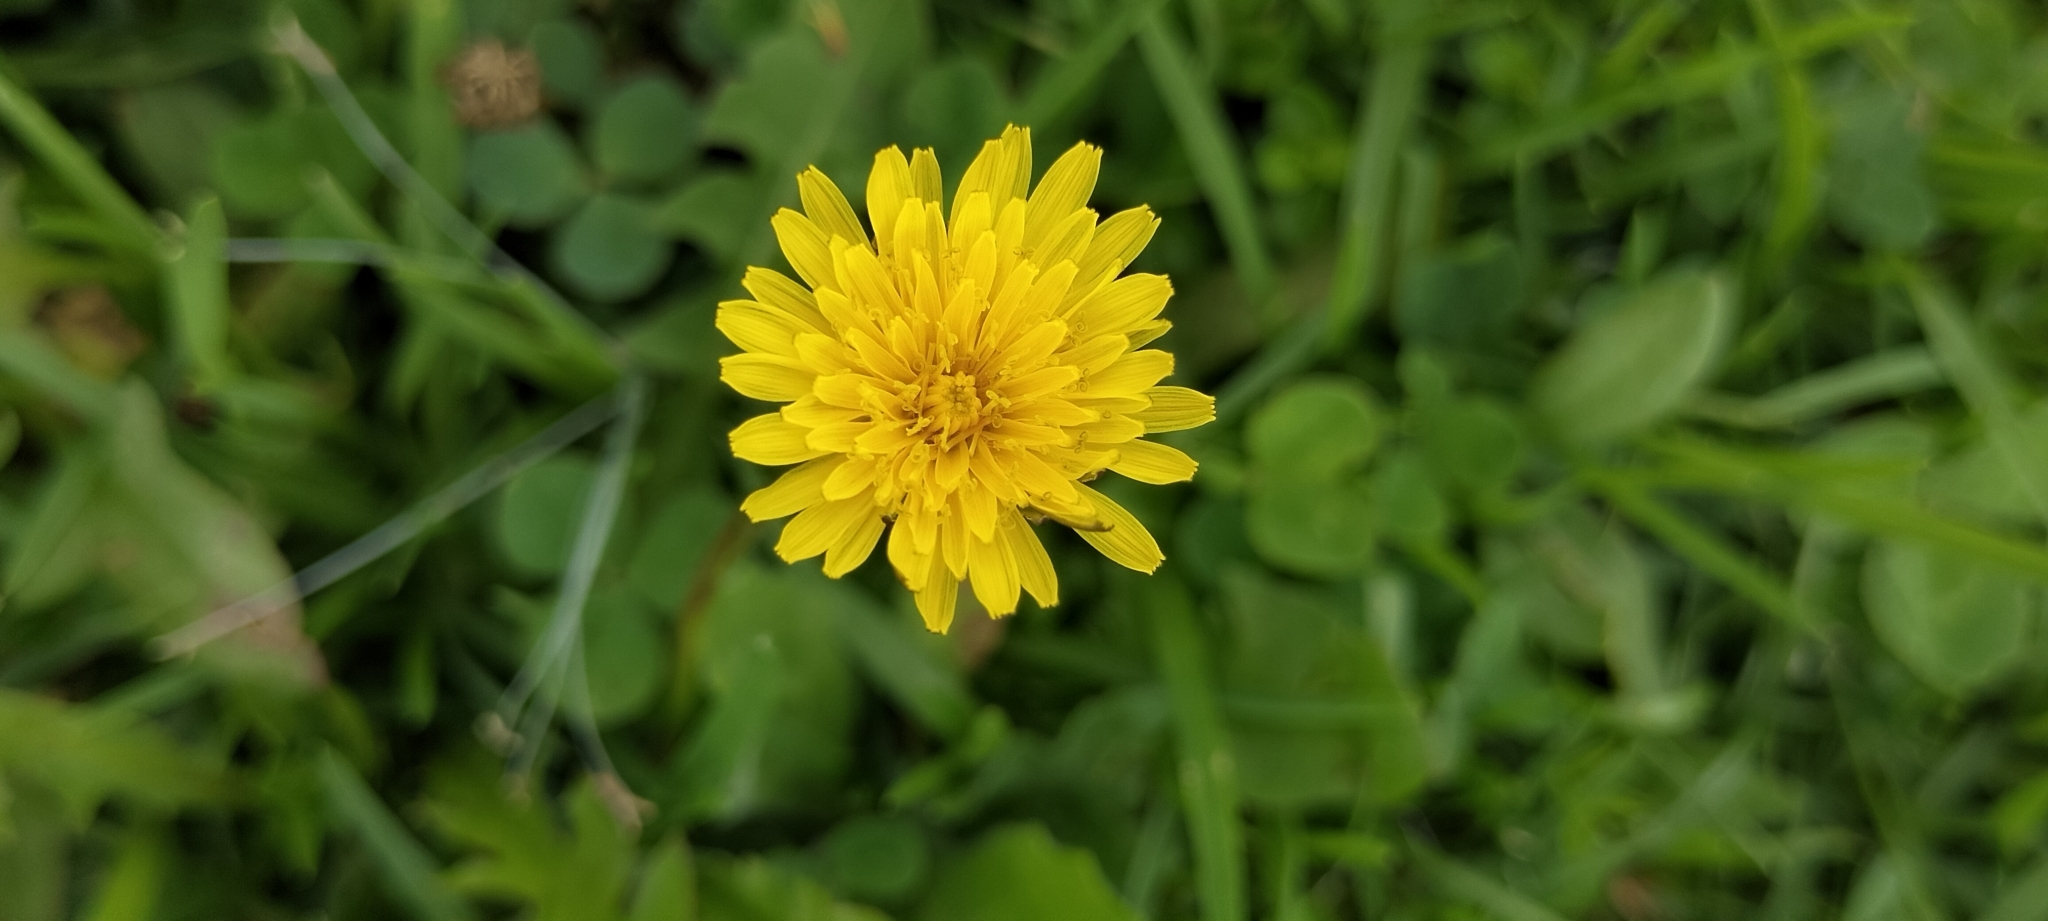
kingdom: Plantae
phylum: Tracheophyta
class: Magnoliopsida
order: Asterales
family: Asteraceae
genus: Taraxacum
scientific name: Taraxacum officinale
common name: Common dandelion
